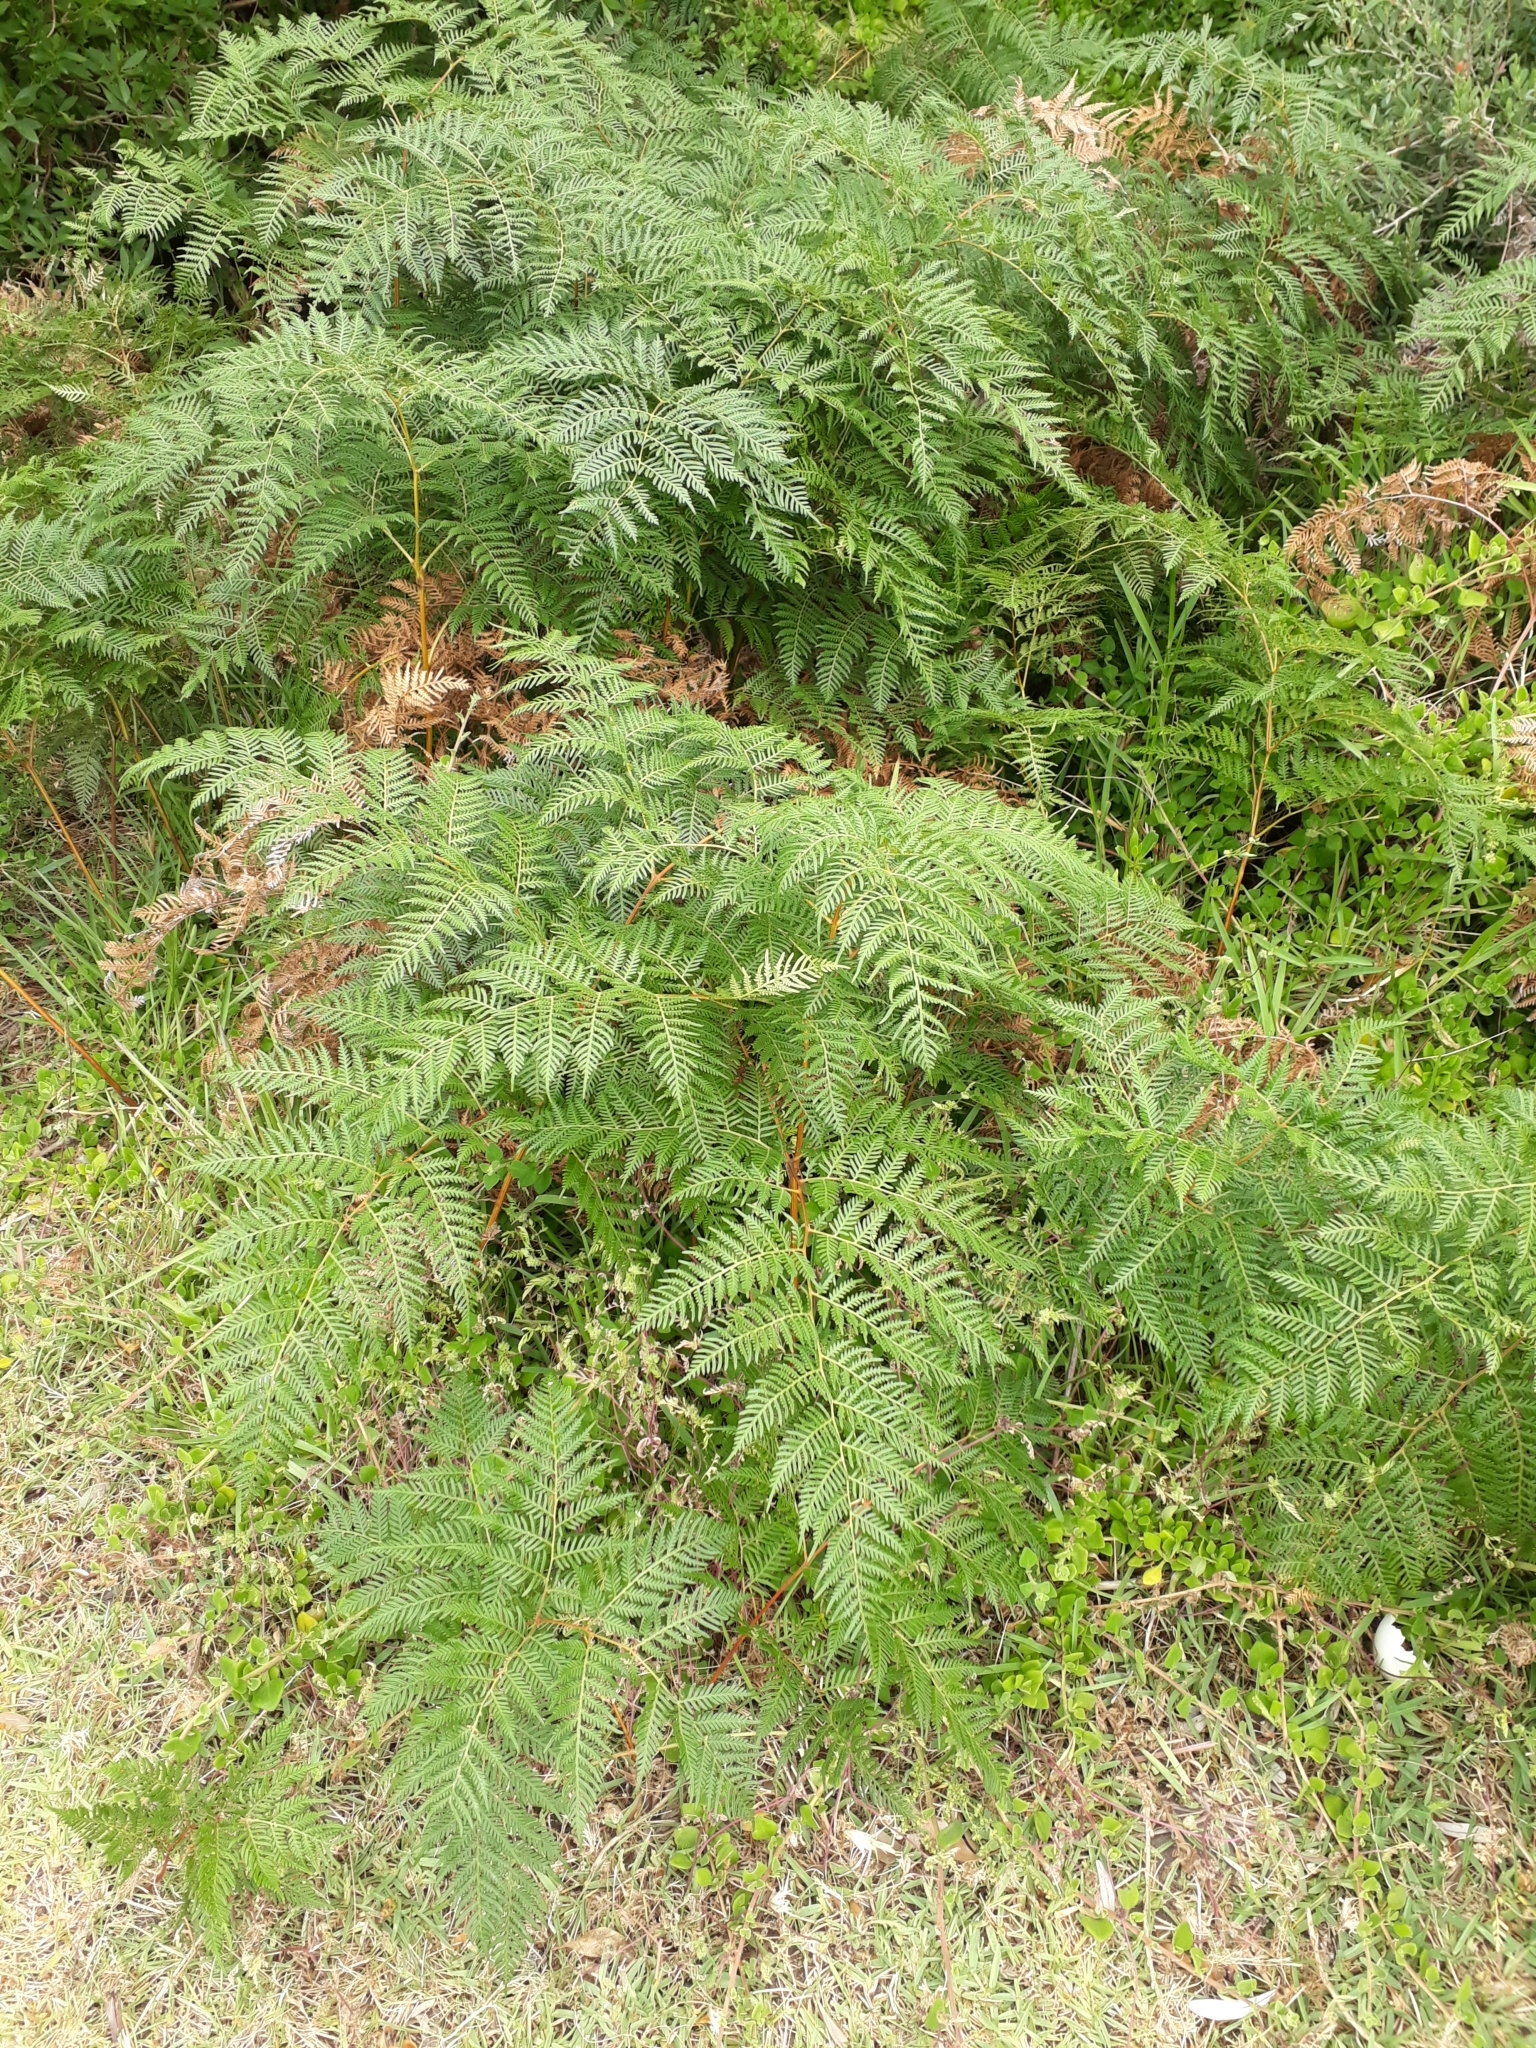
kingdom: Plantae
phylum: Tracheophyta
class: Polypodiopsida
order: Polypodiales
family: Dennstaedtiaceae
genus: Pteridium
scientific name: Pteridium esculentum
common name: Bracken fern
